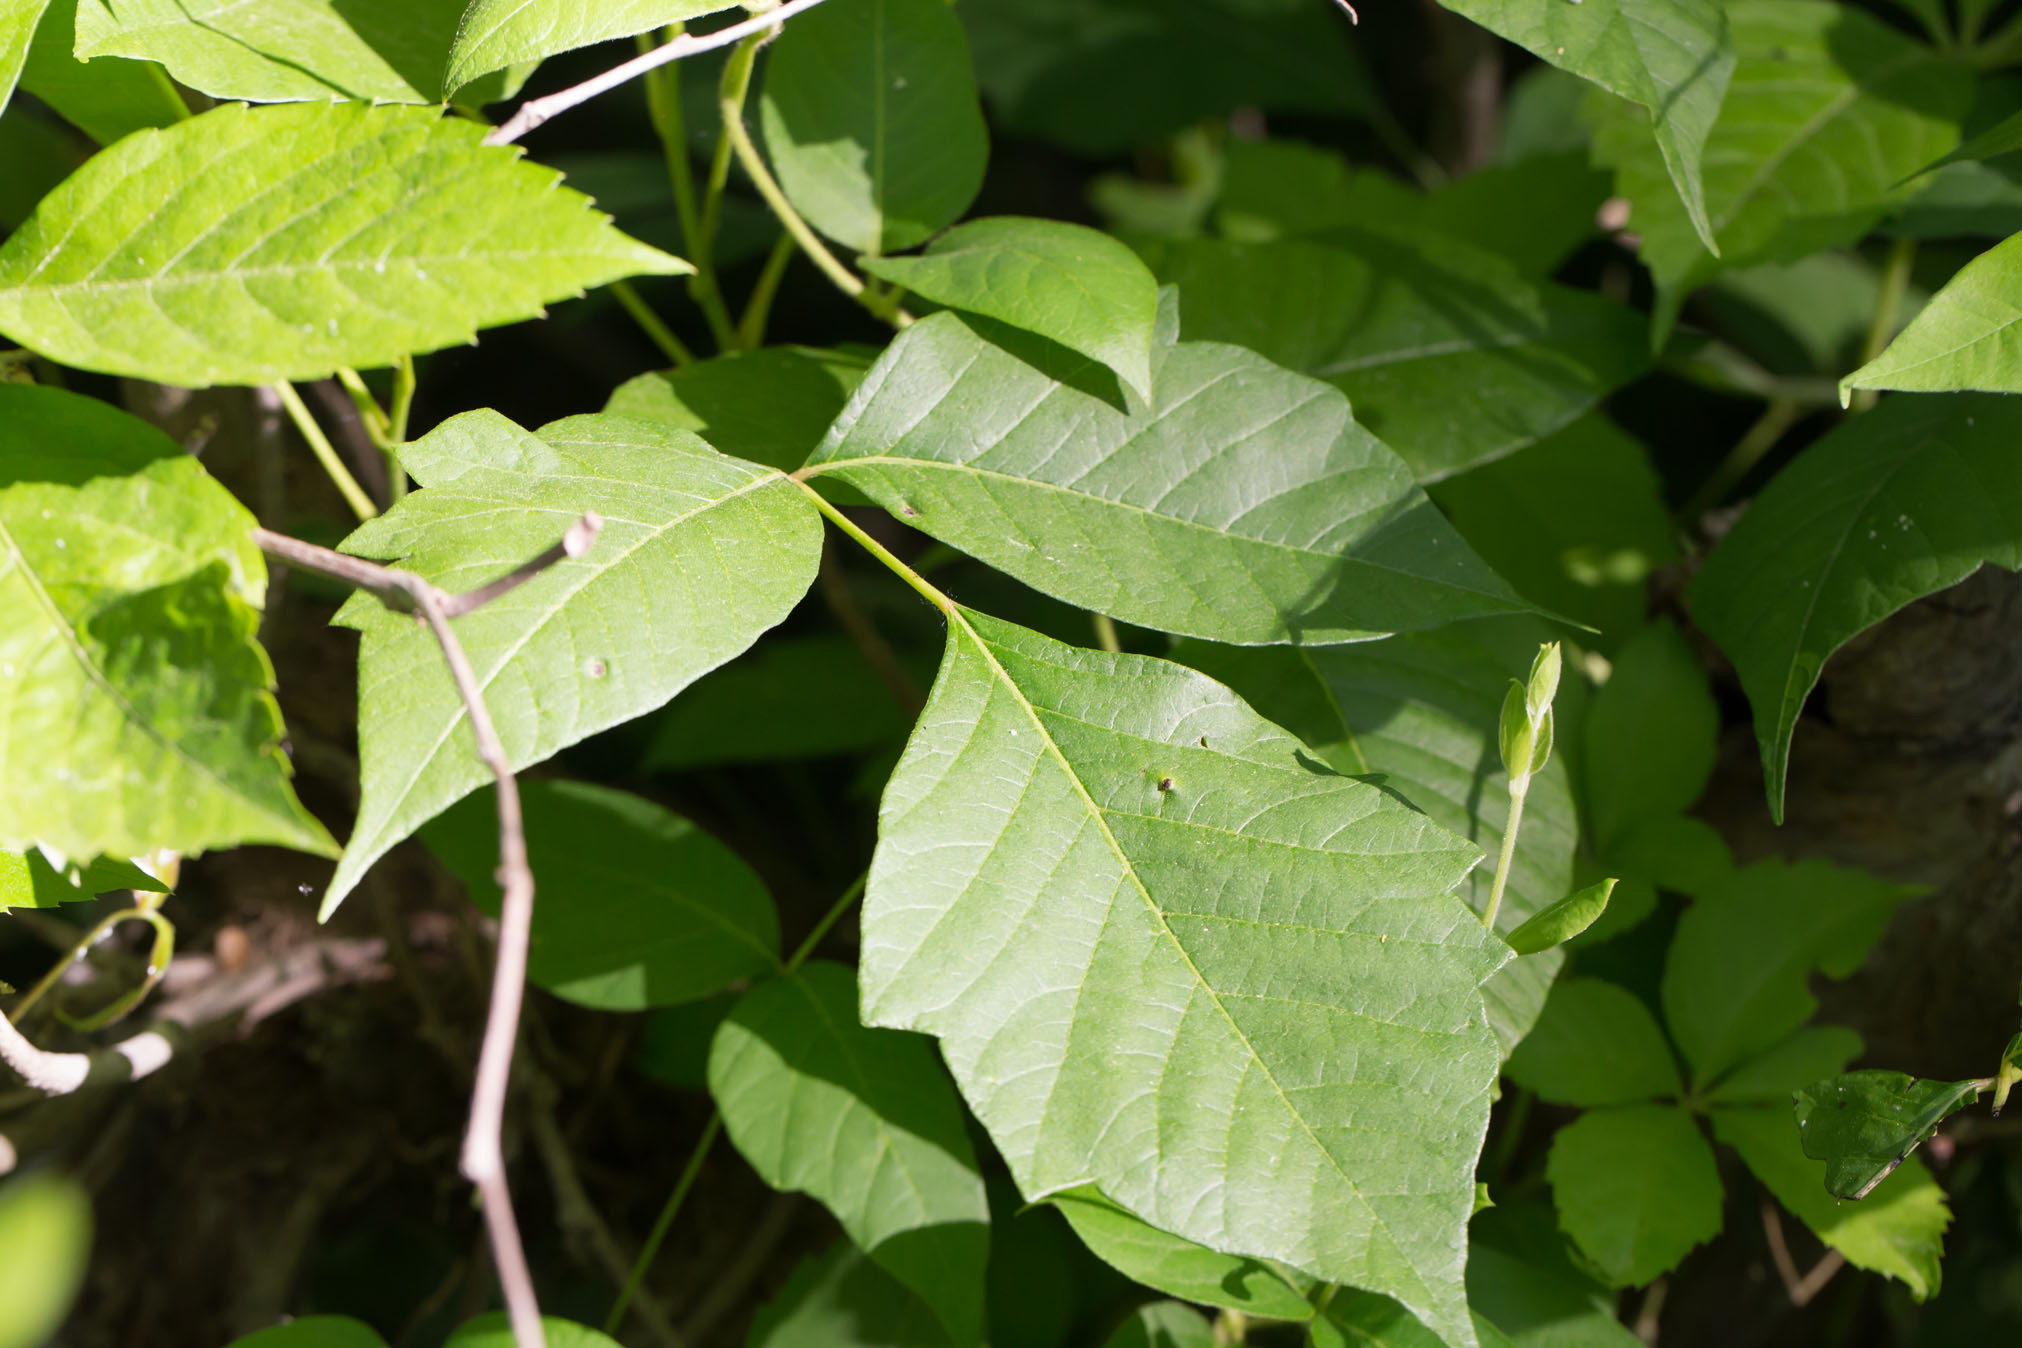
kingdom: Plantae
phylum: Tracheophyta
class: Magnoliopsida
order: Sapindales
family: Anacardiaceae
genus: Toxicodendron
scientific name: Toxicodendron radicans
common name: Poison ivy
